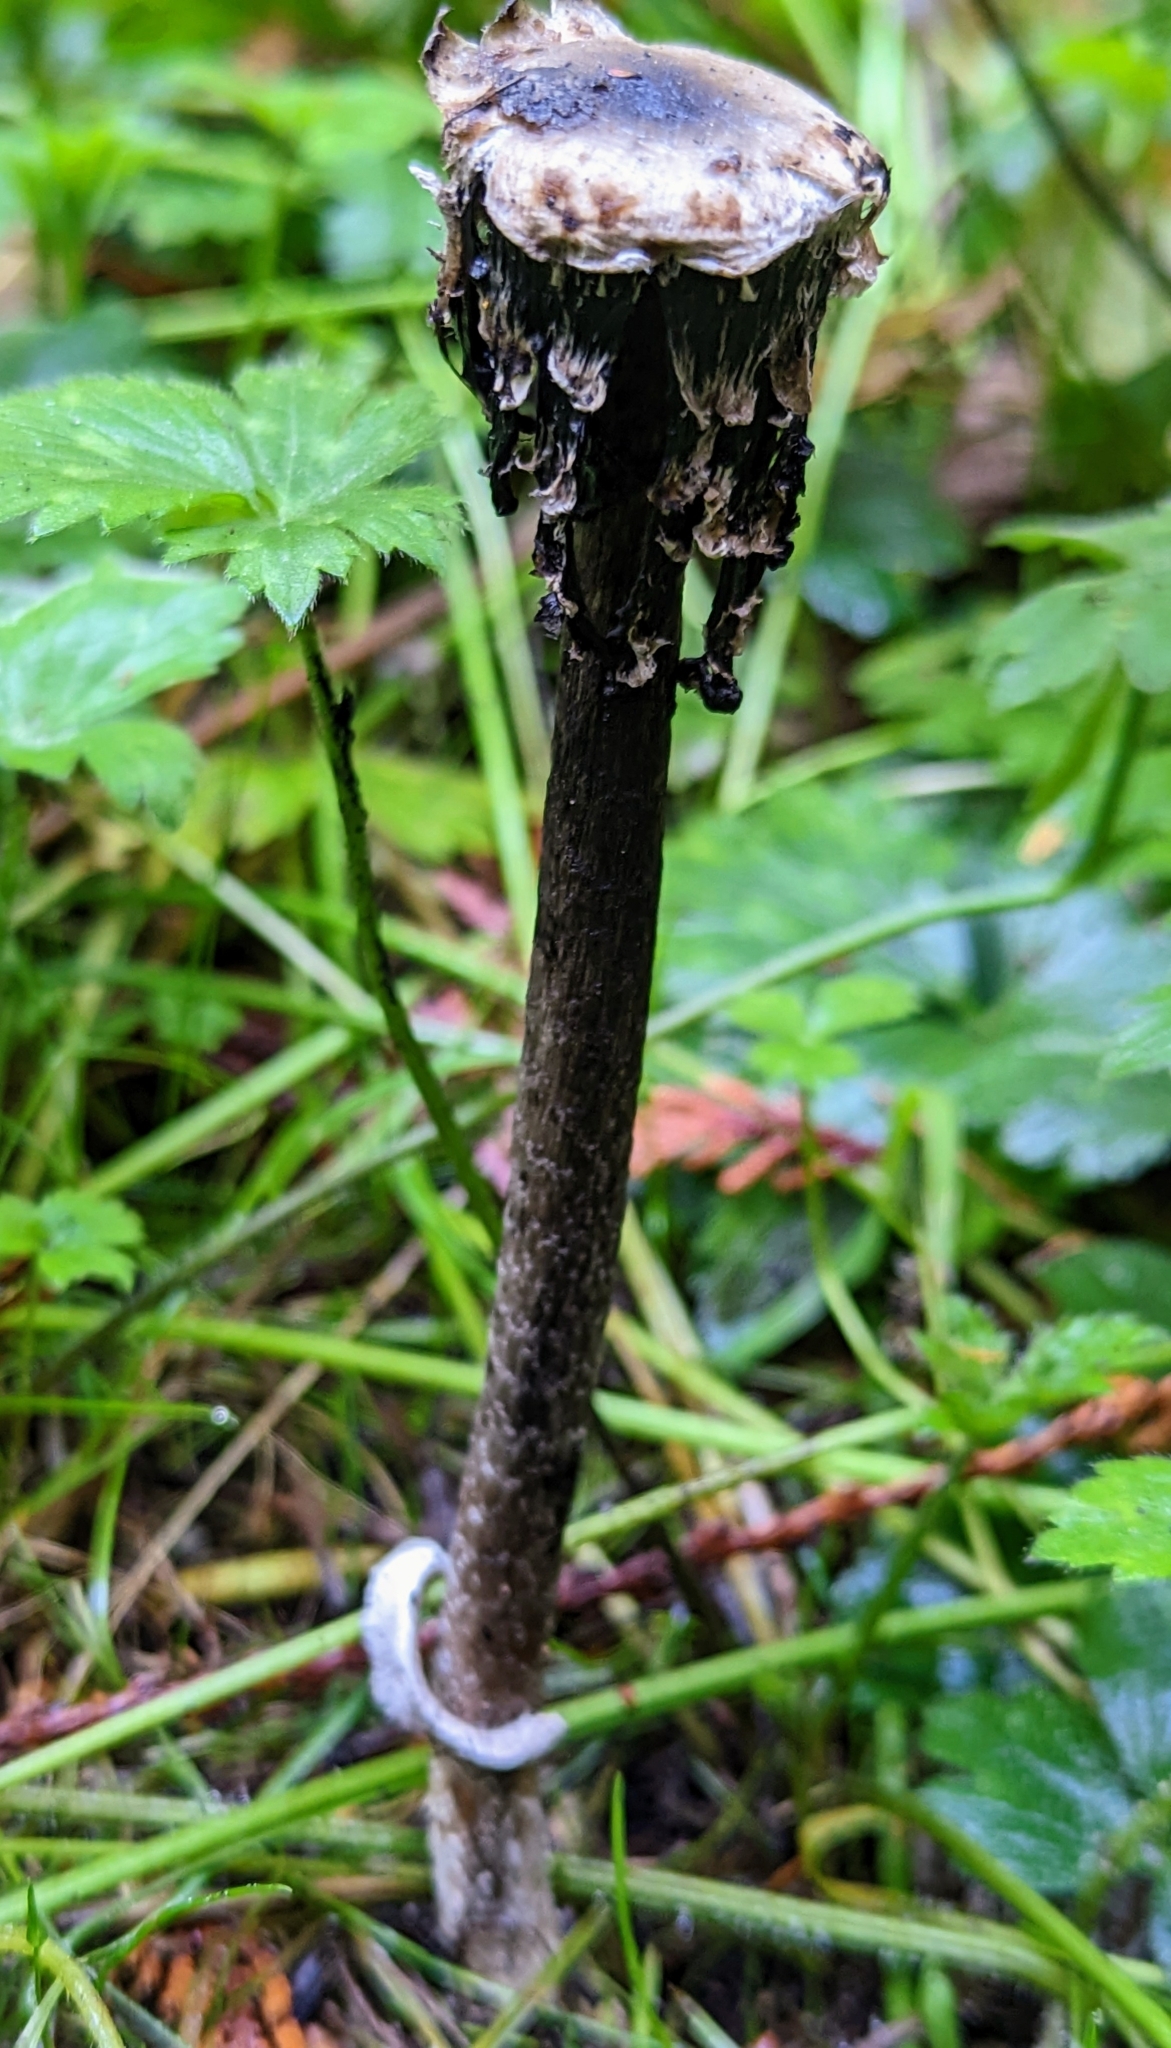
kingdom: Fungi
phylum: Basidiomycota
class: Agaricomycetes
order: Agaricales
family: Agaricaceae
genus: Coprinus
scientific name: Coprinus comatus
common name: Lawyer's wig
